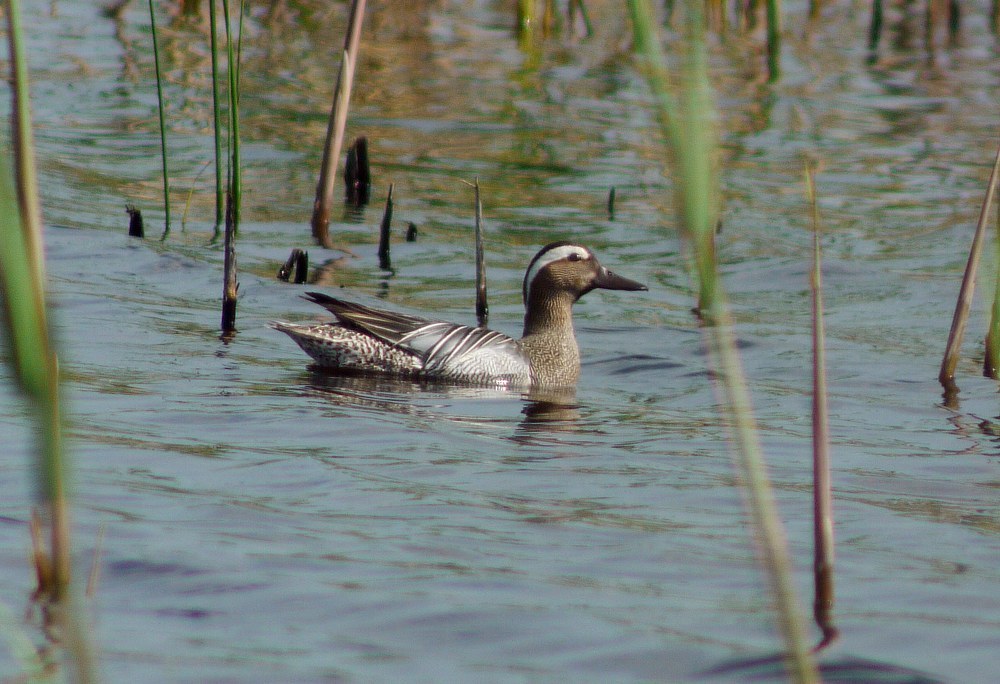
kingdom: Animalia
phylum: Chordata
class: Aves
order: Anseriformes
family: Anatidae
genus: Spatula
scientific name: Spatula querquedula
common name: Garganey
